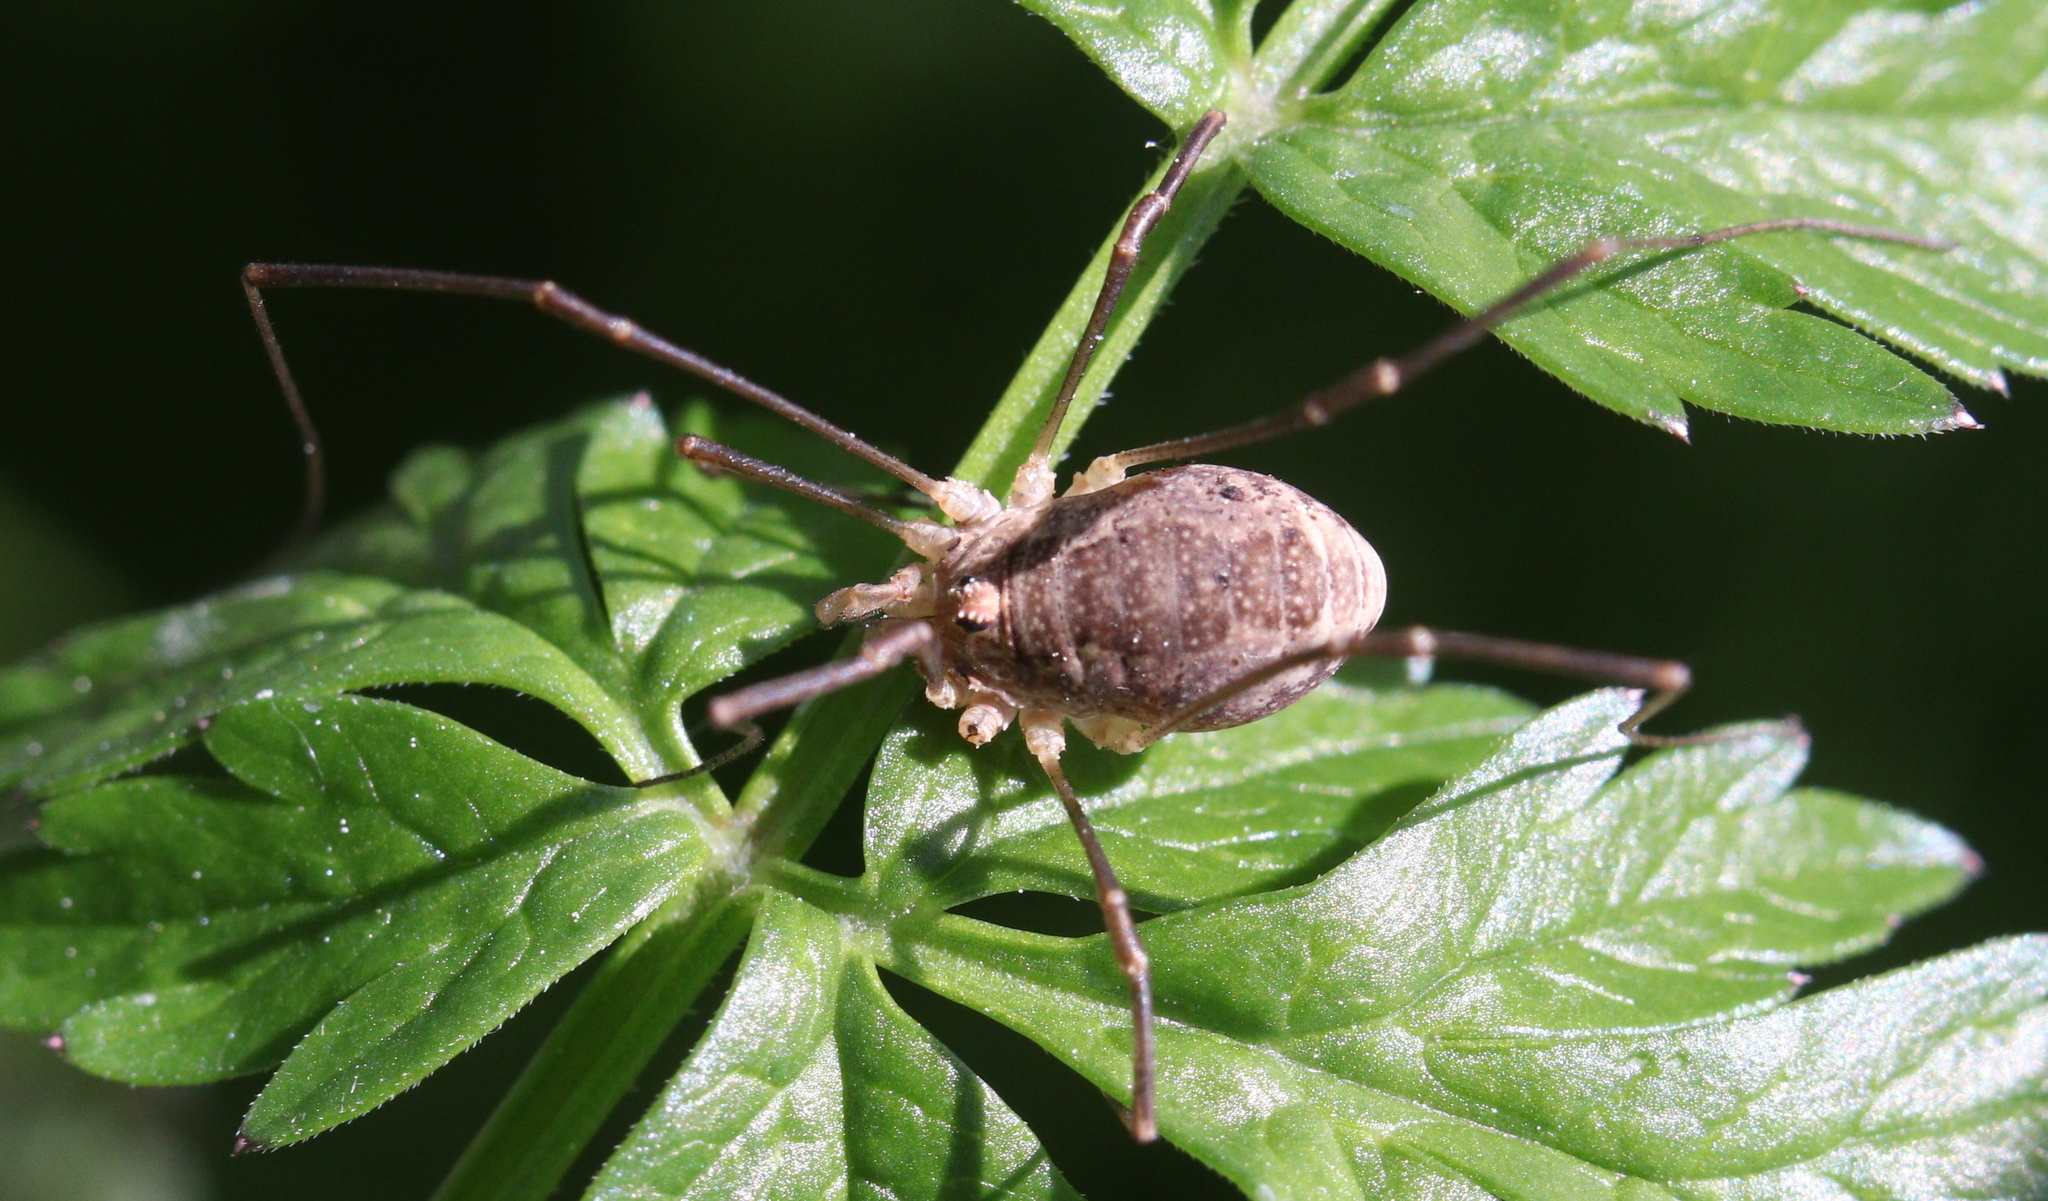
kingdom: Animalia
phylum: Arthropoda
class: Arachnida
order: Opiliones
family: Phalangiidae
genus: Rilaena
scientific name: Rilaena triangularis
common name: Spring harvestman
